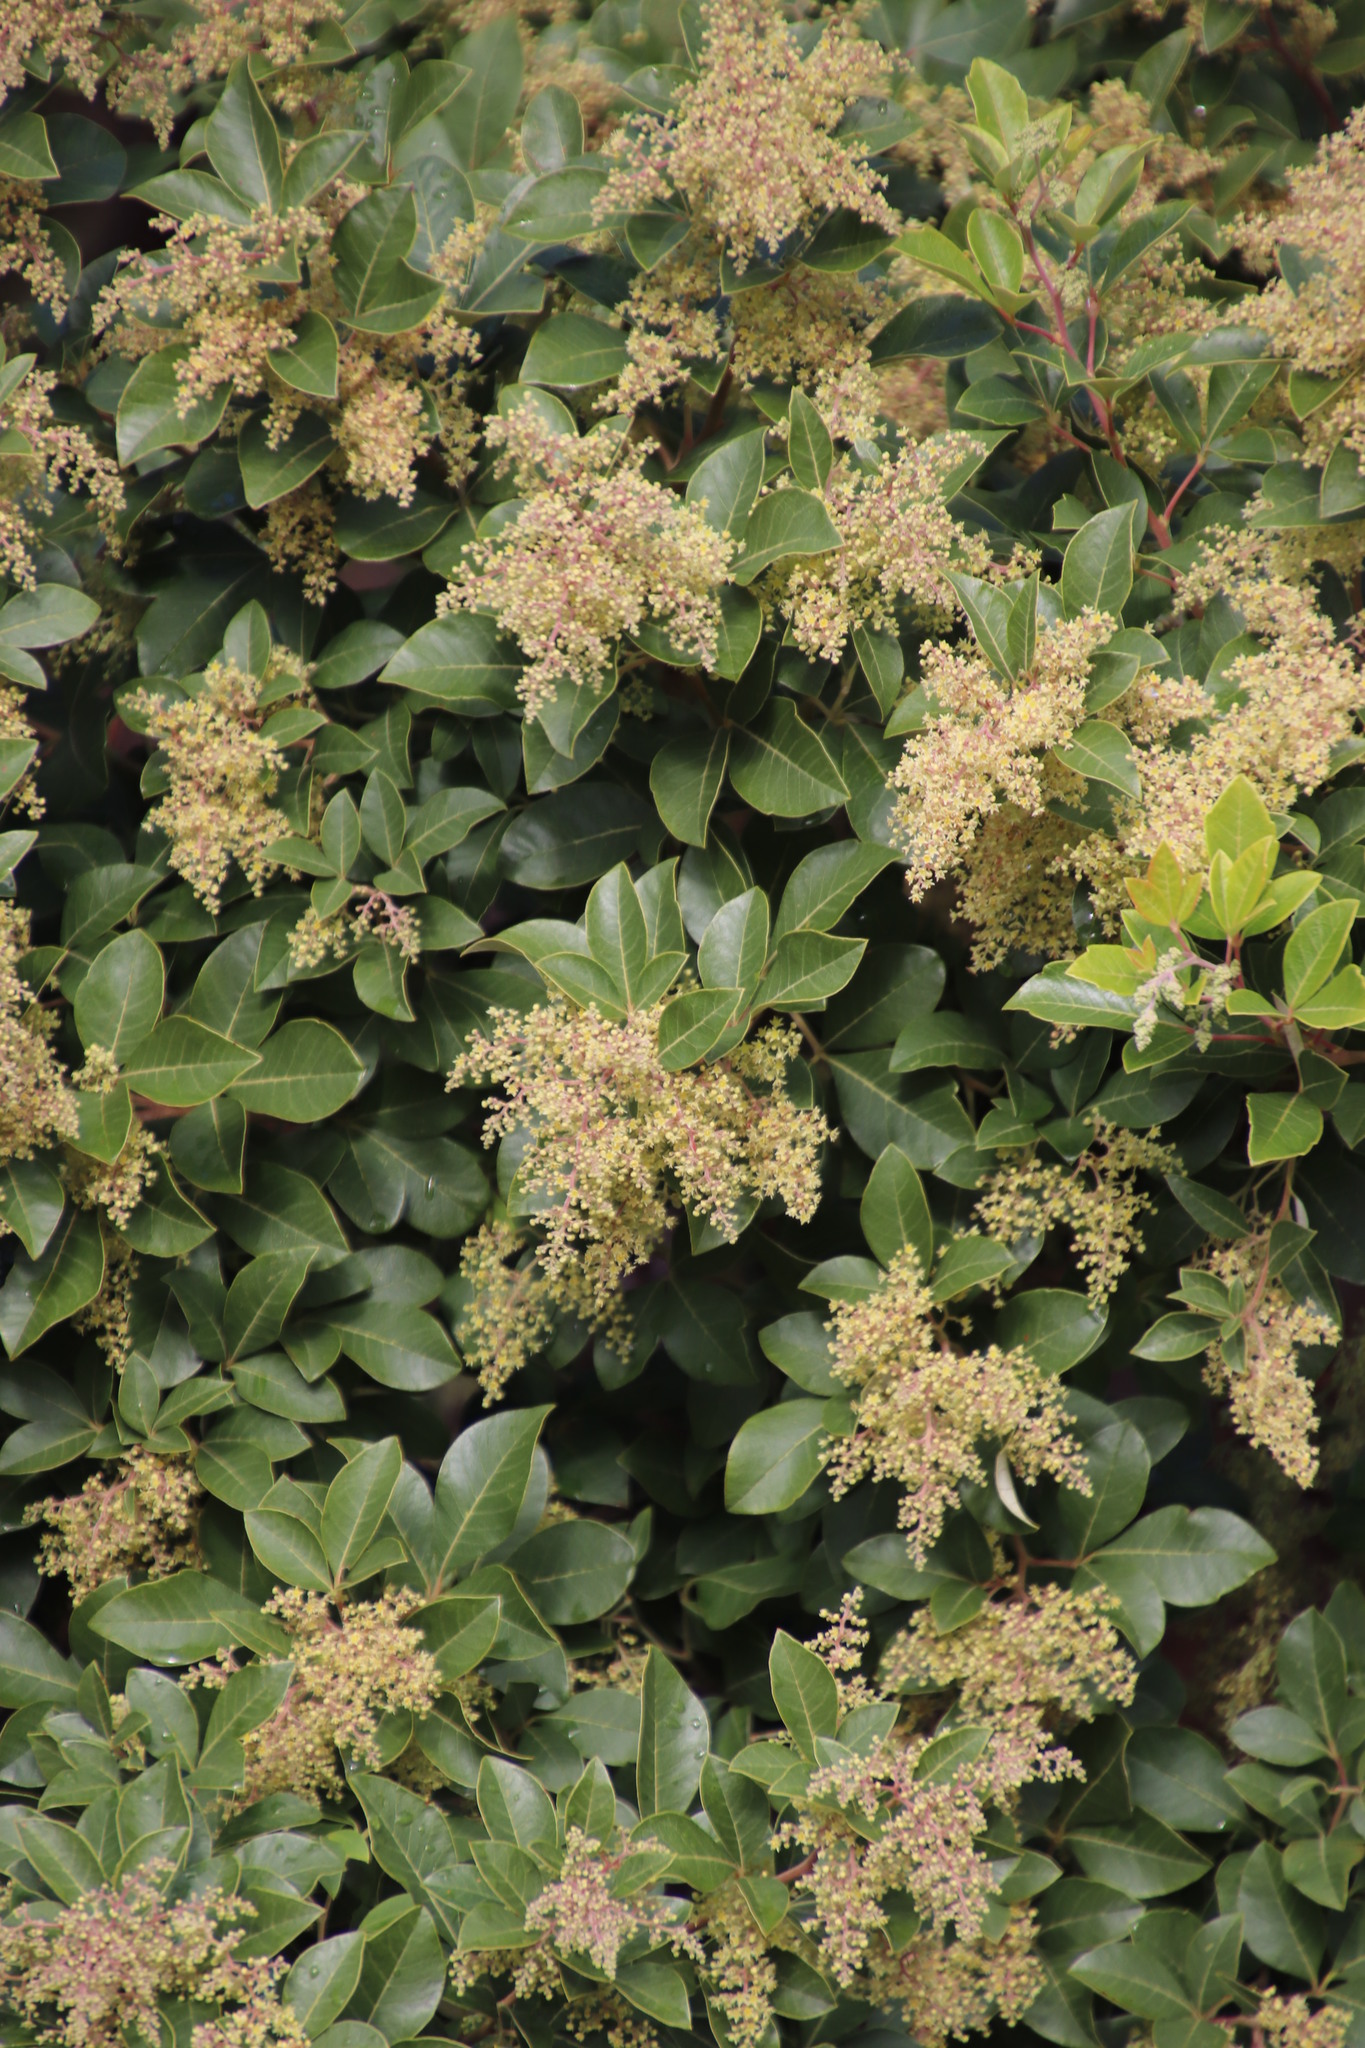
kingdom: Plantae
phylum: Tracheophyta
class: Magnoliopsida
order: Sapindales
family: Anacardiaceae
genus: Searsia
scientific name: Searsia tomentosa
